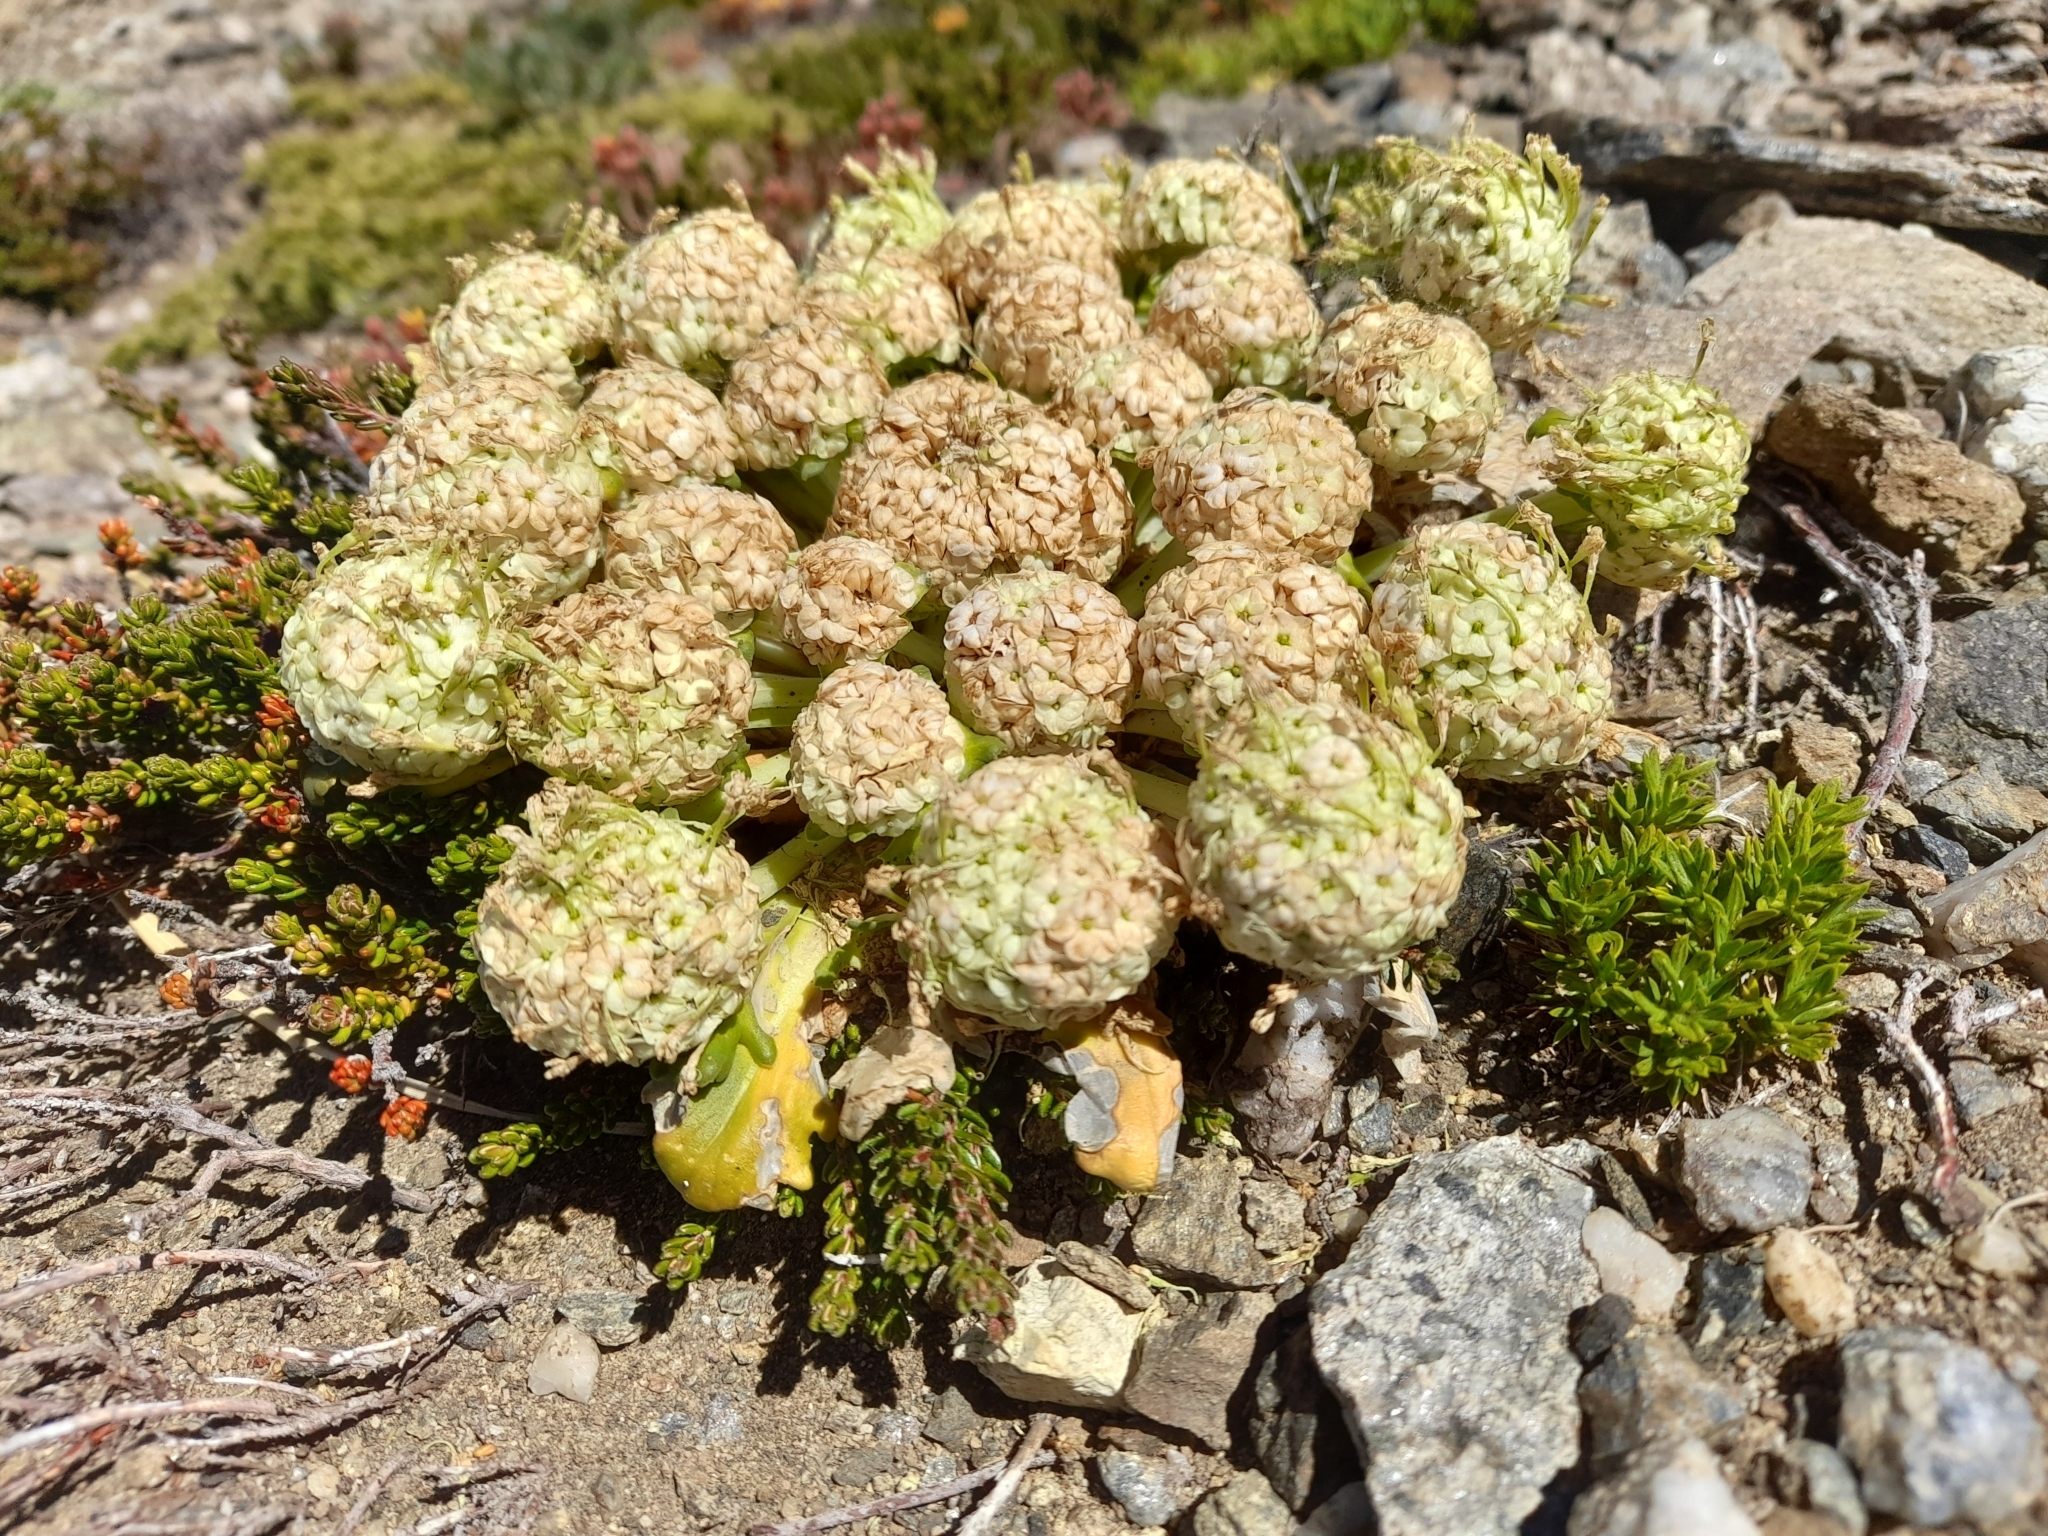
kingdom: Plantae
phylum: Tracheophyta
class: Magnoliopsida
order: Asterales
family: Calyceraceae
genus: Gamocarpha
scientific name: Gamocarpha scapigera
